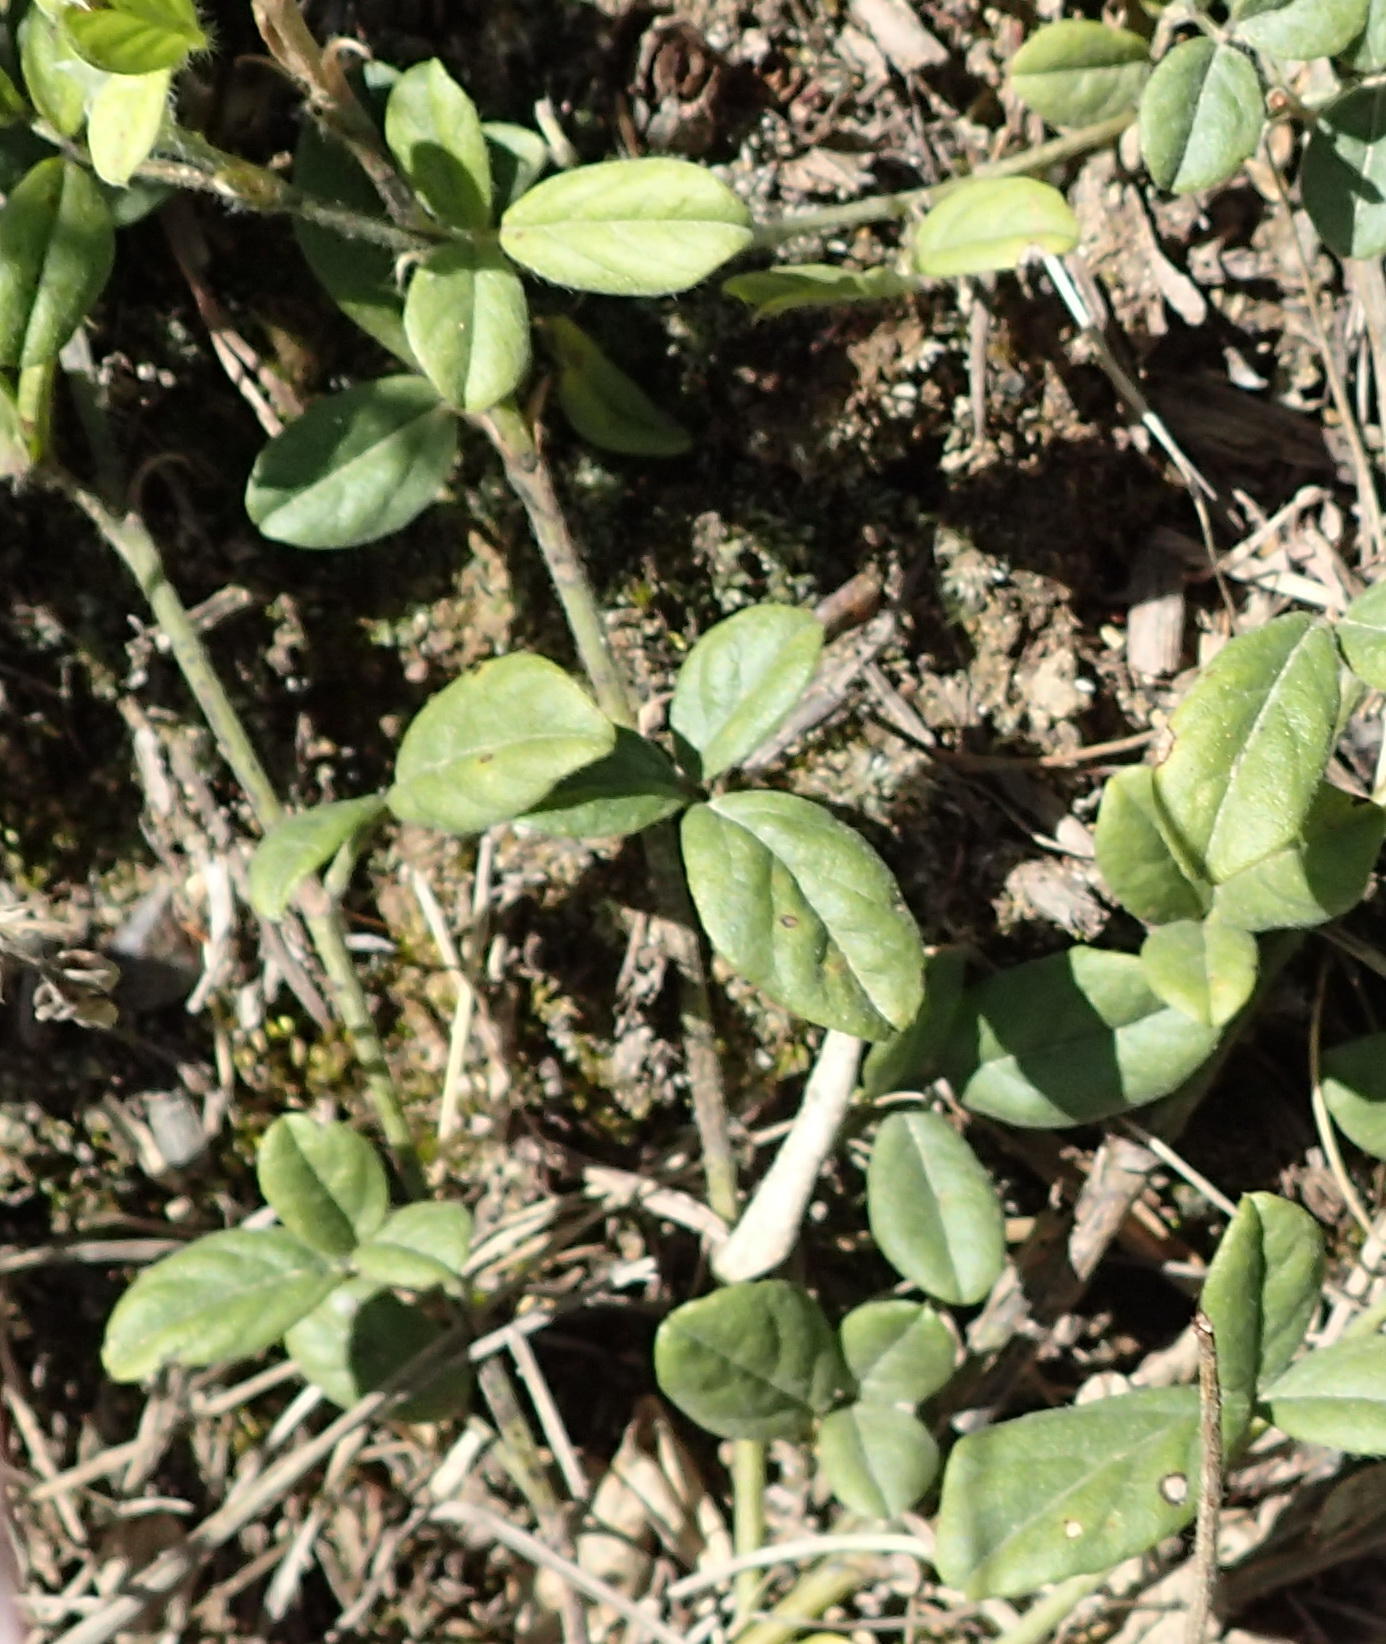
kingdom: Plantae
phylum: Tracheophyta
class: Magnoliopsida
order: Fabales
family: Fabaceae
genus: Psoralea
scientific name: Psoralea swartbergensis
